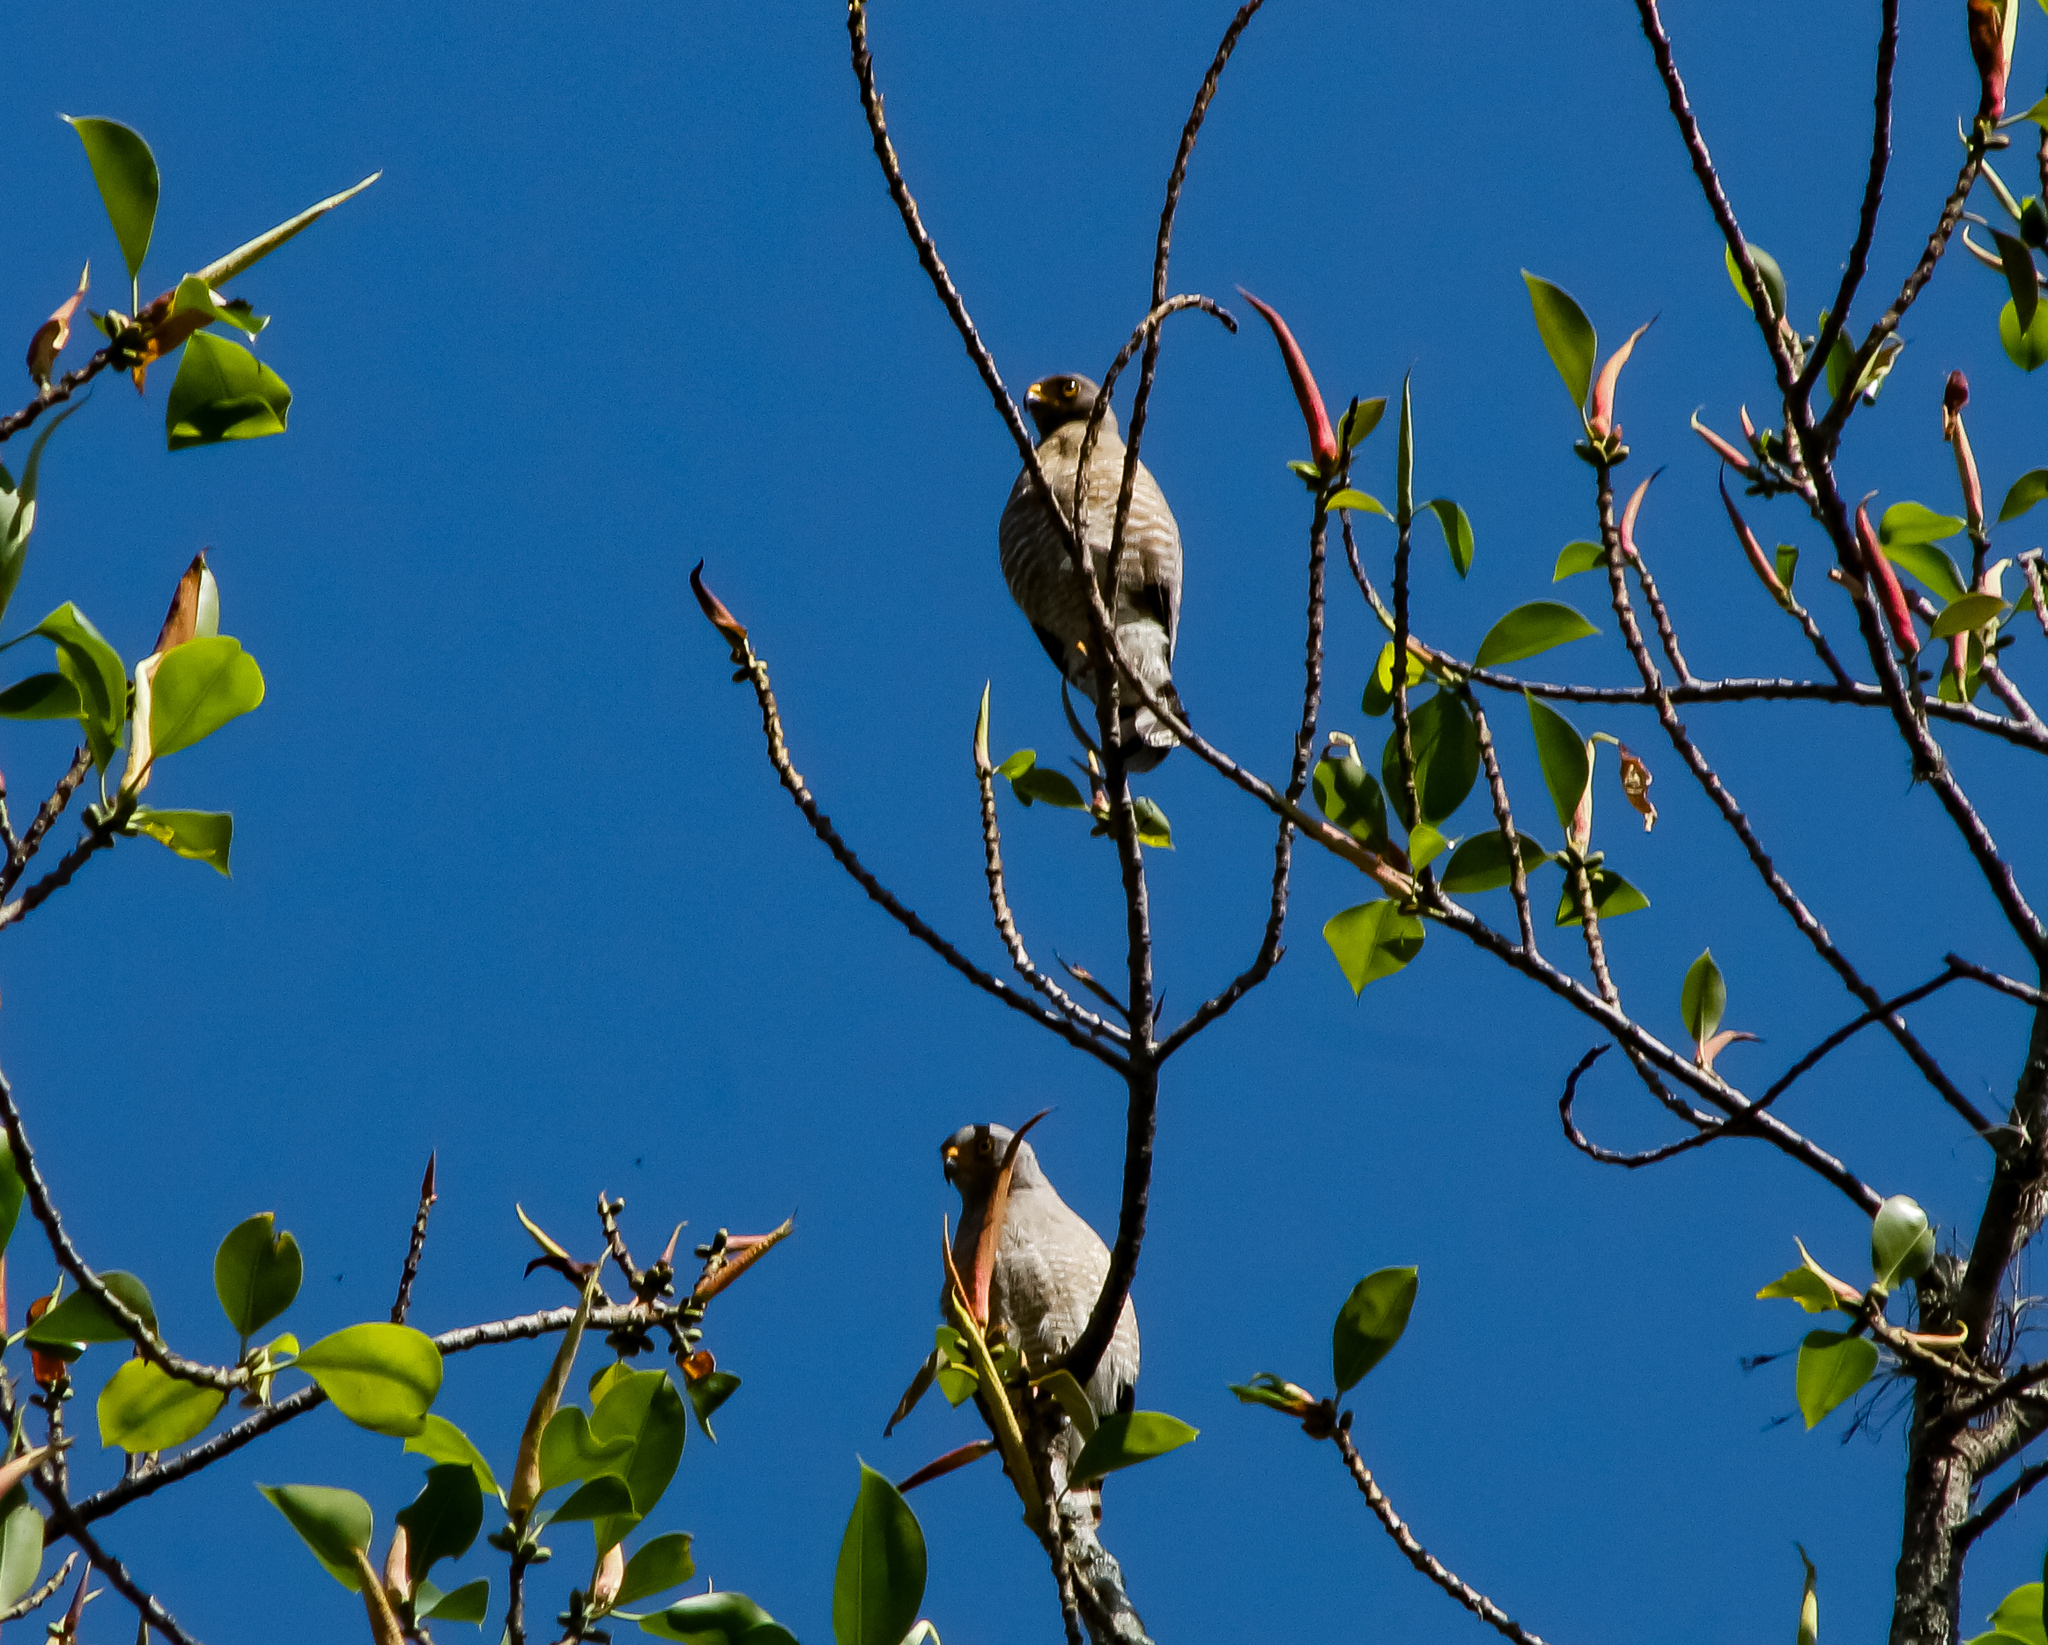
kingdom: Animalia
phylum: Chordata
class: Aves
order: Accipitriformes
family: Accipitridae
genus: Rupornis
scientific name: Rupornis magnirostris
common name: Roadside hawk
